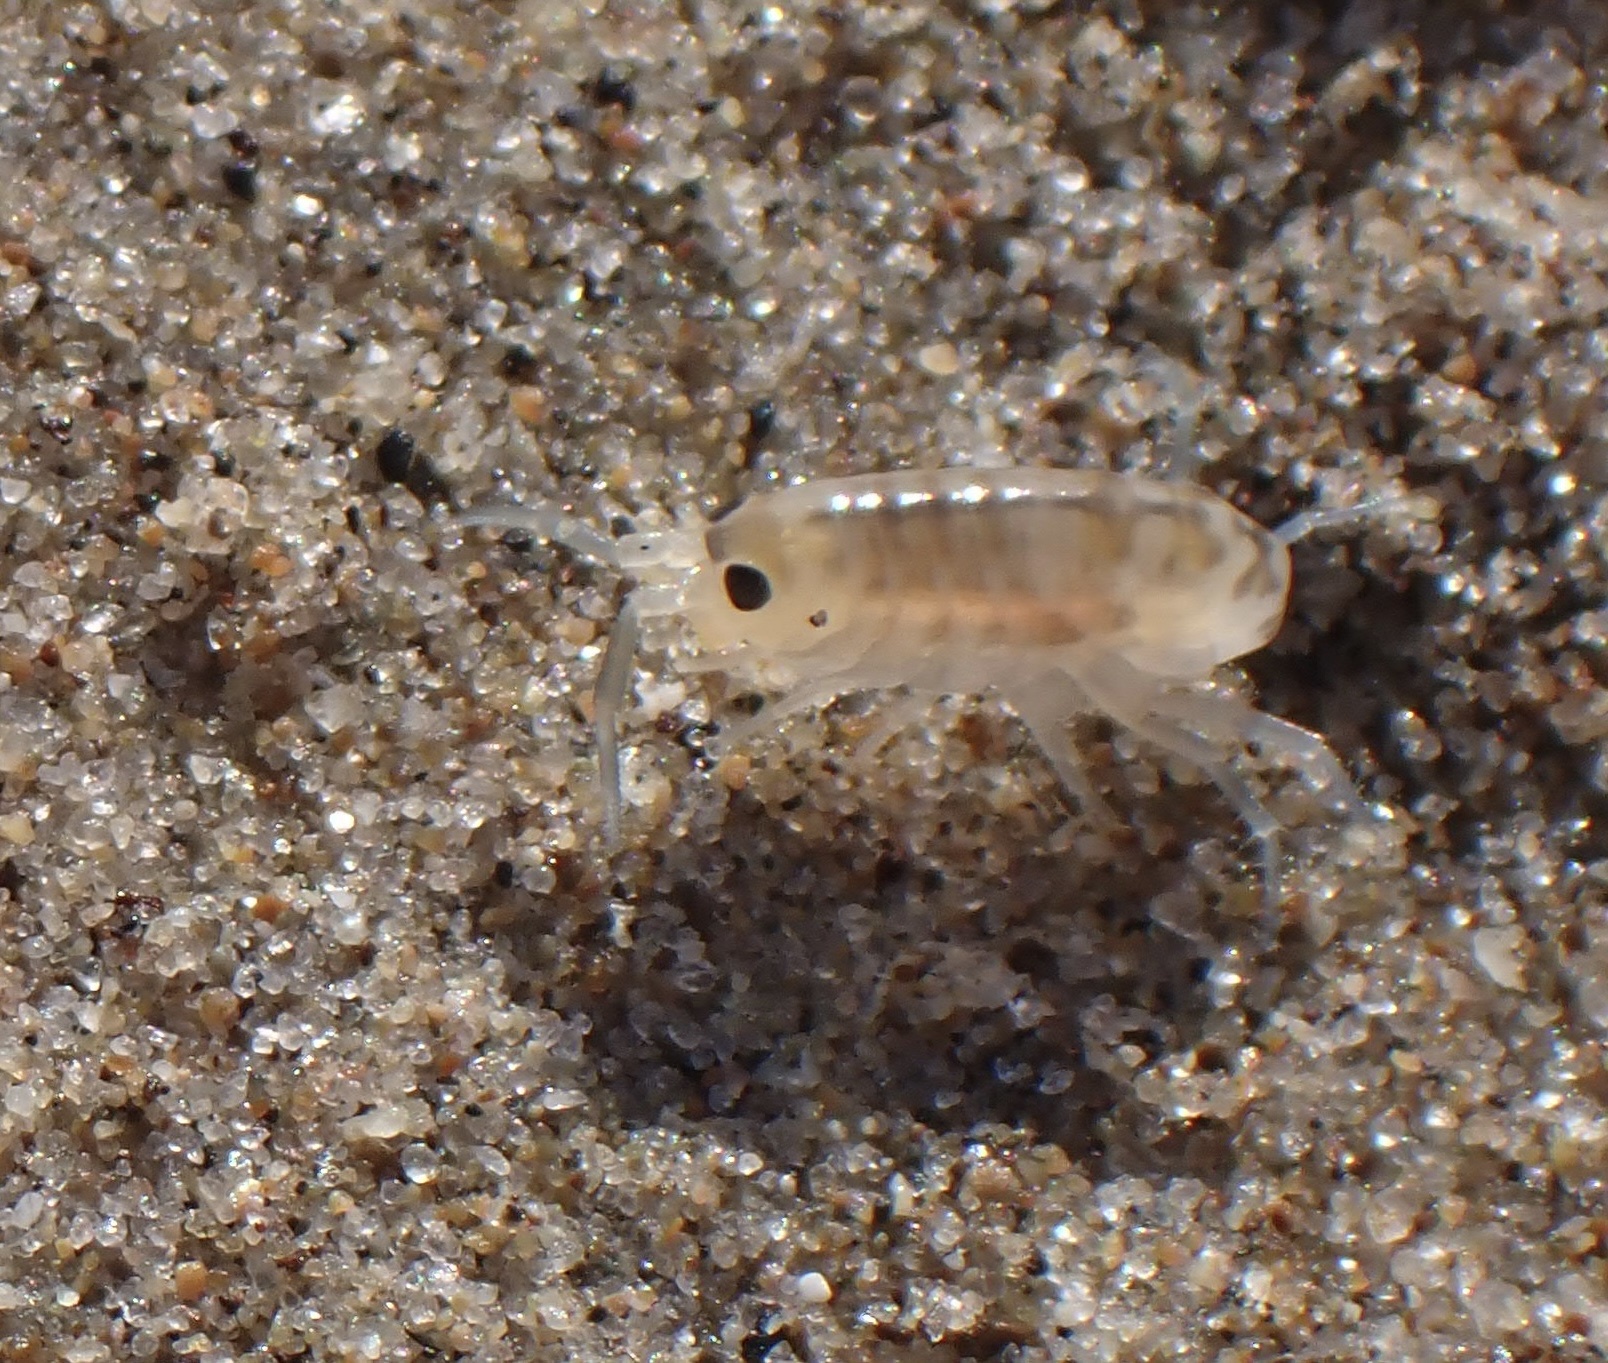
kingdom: Animalia
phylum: Arthropoda
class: Malacostraca
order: Amphipoda
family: Talitridae
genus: Megalorchestia
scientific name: Megalorchestia californiana
